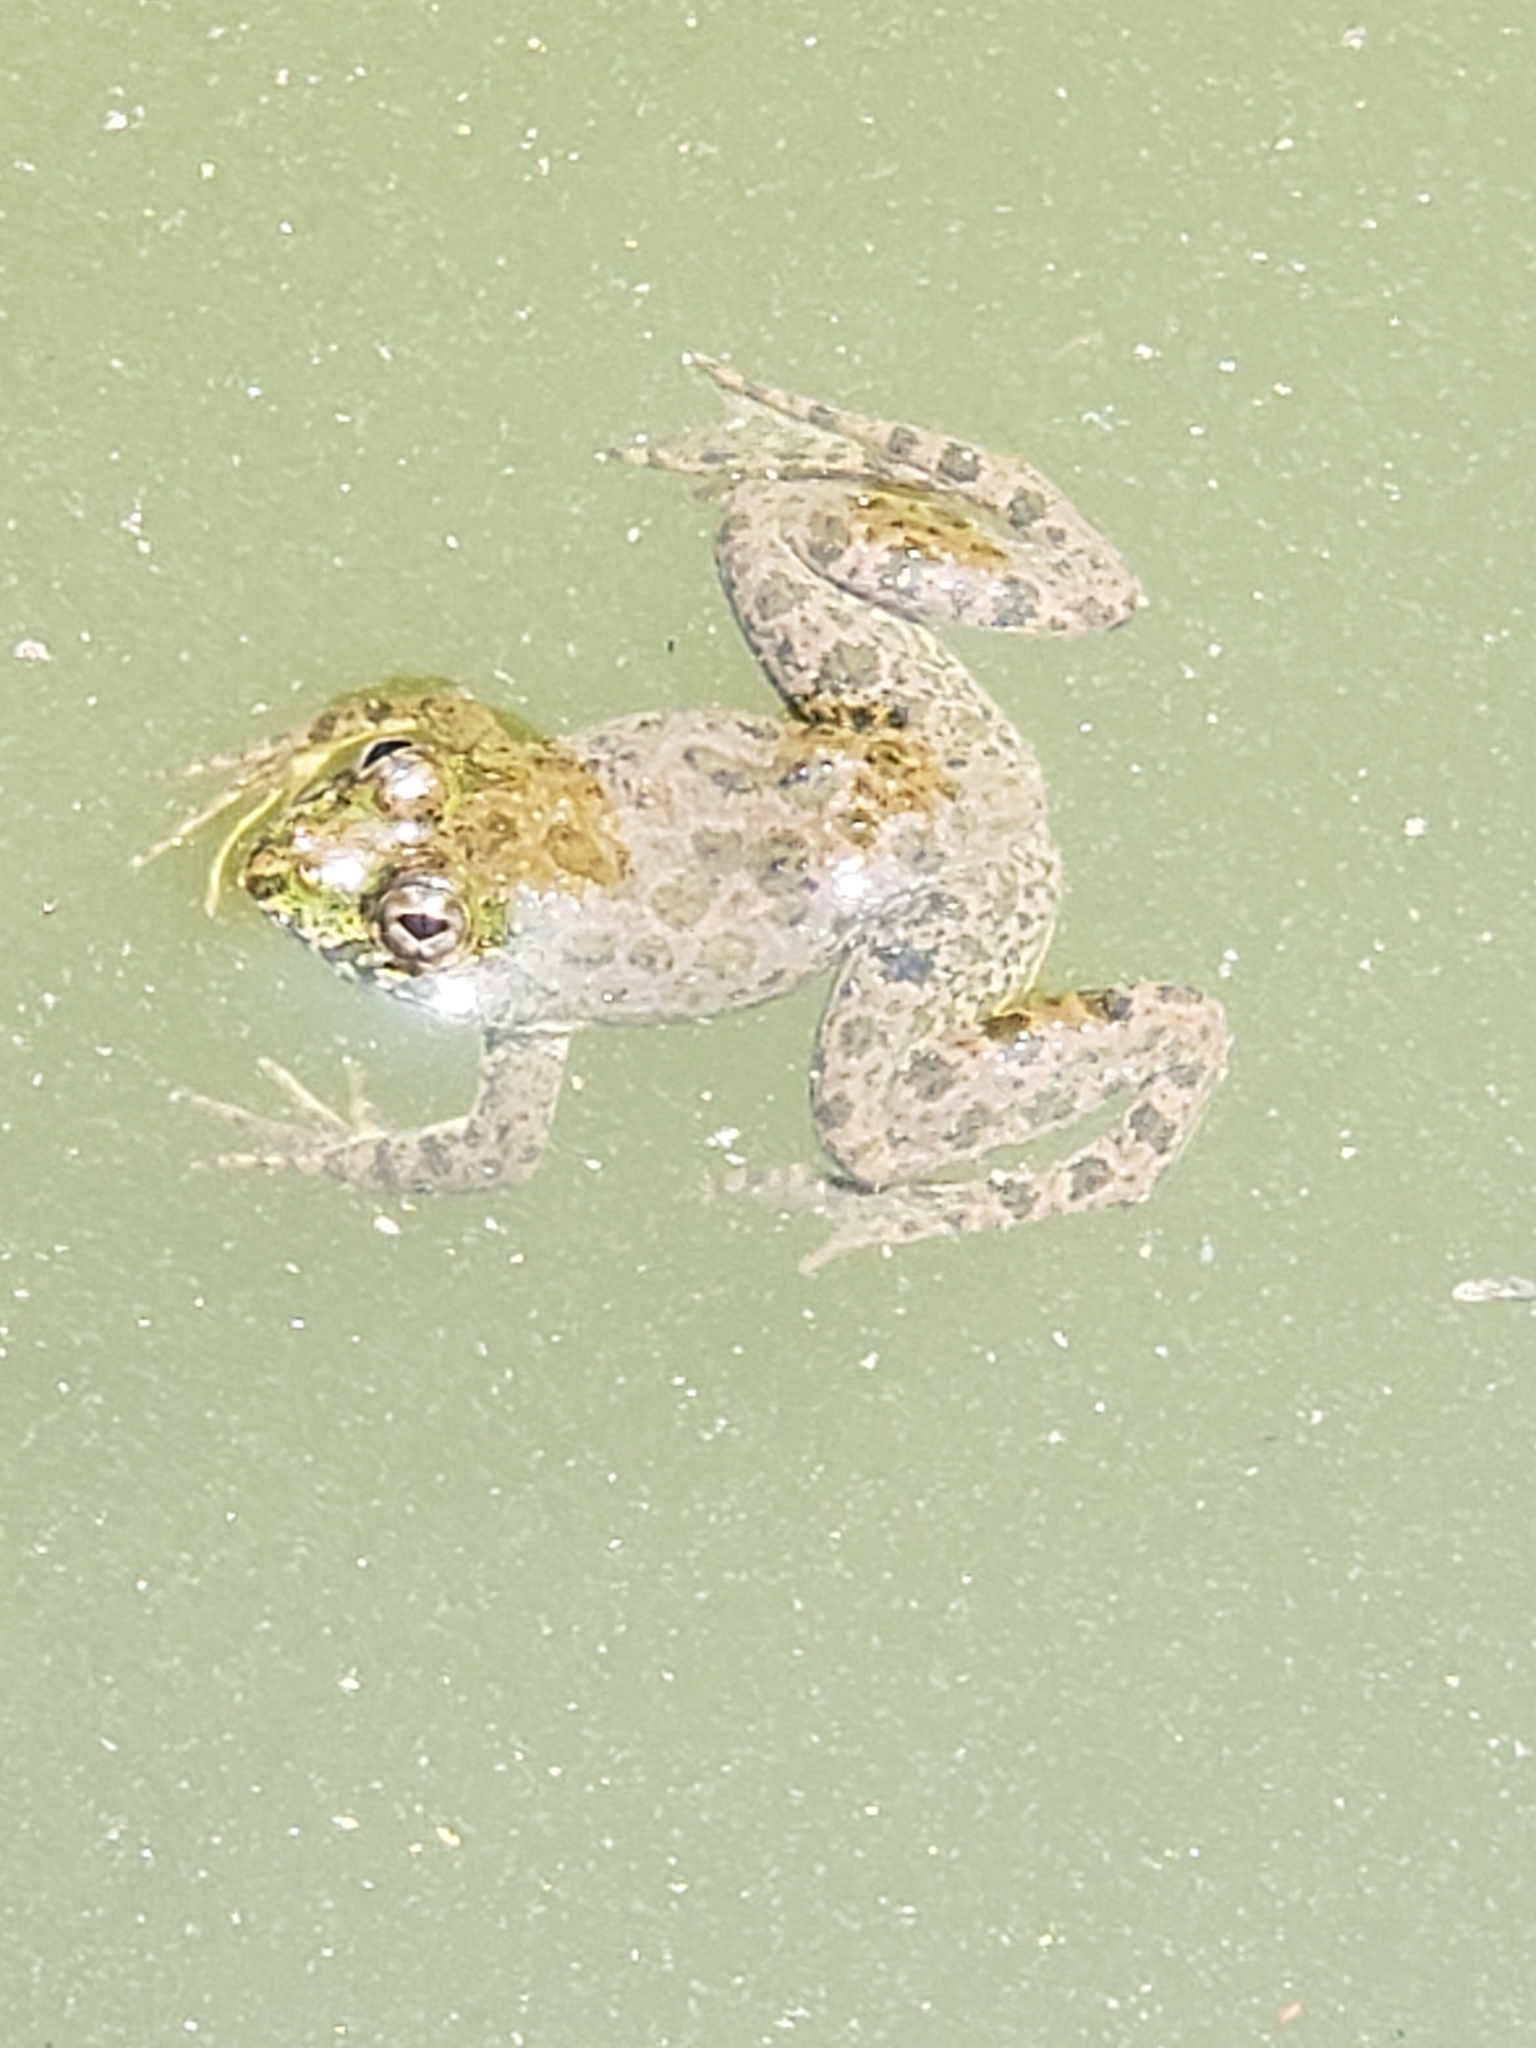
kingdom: Animalia
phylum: Chordata
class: Amphibia
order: Anura
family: Dicroglossidae
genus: Euphlyctis
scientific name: Euphlyctis cyanophlyctis
